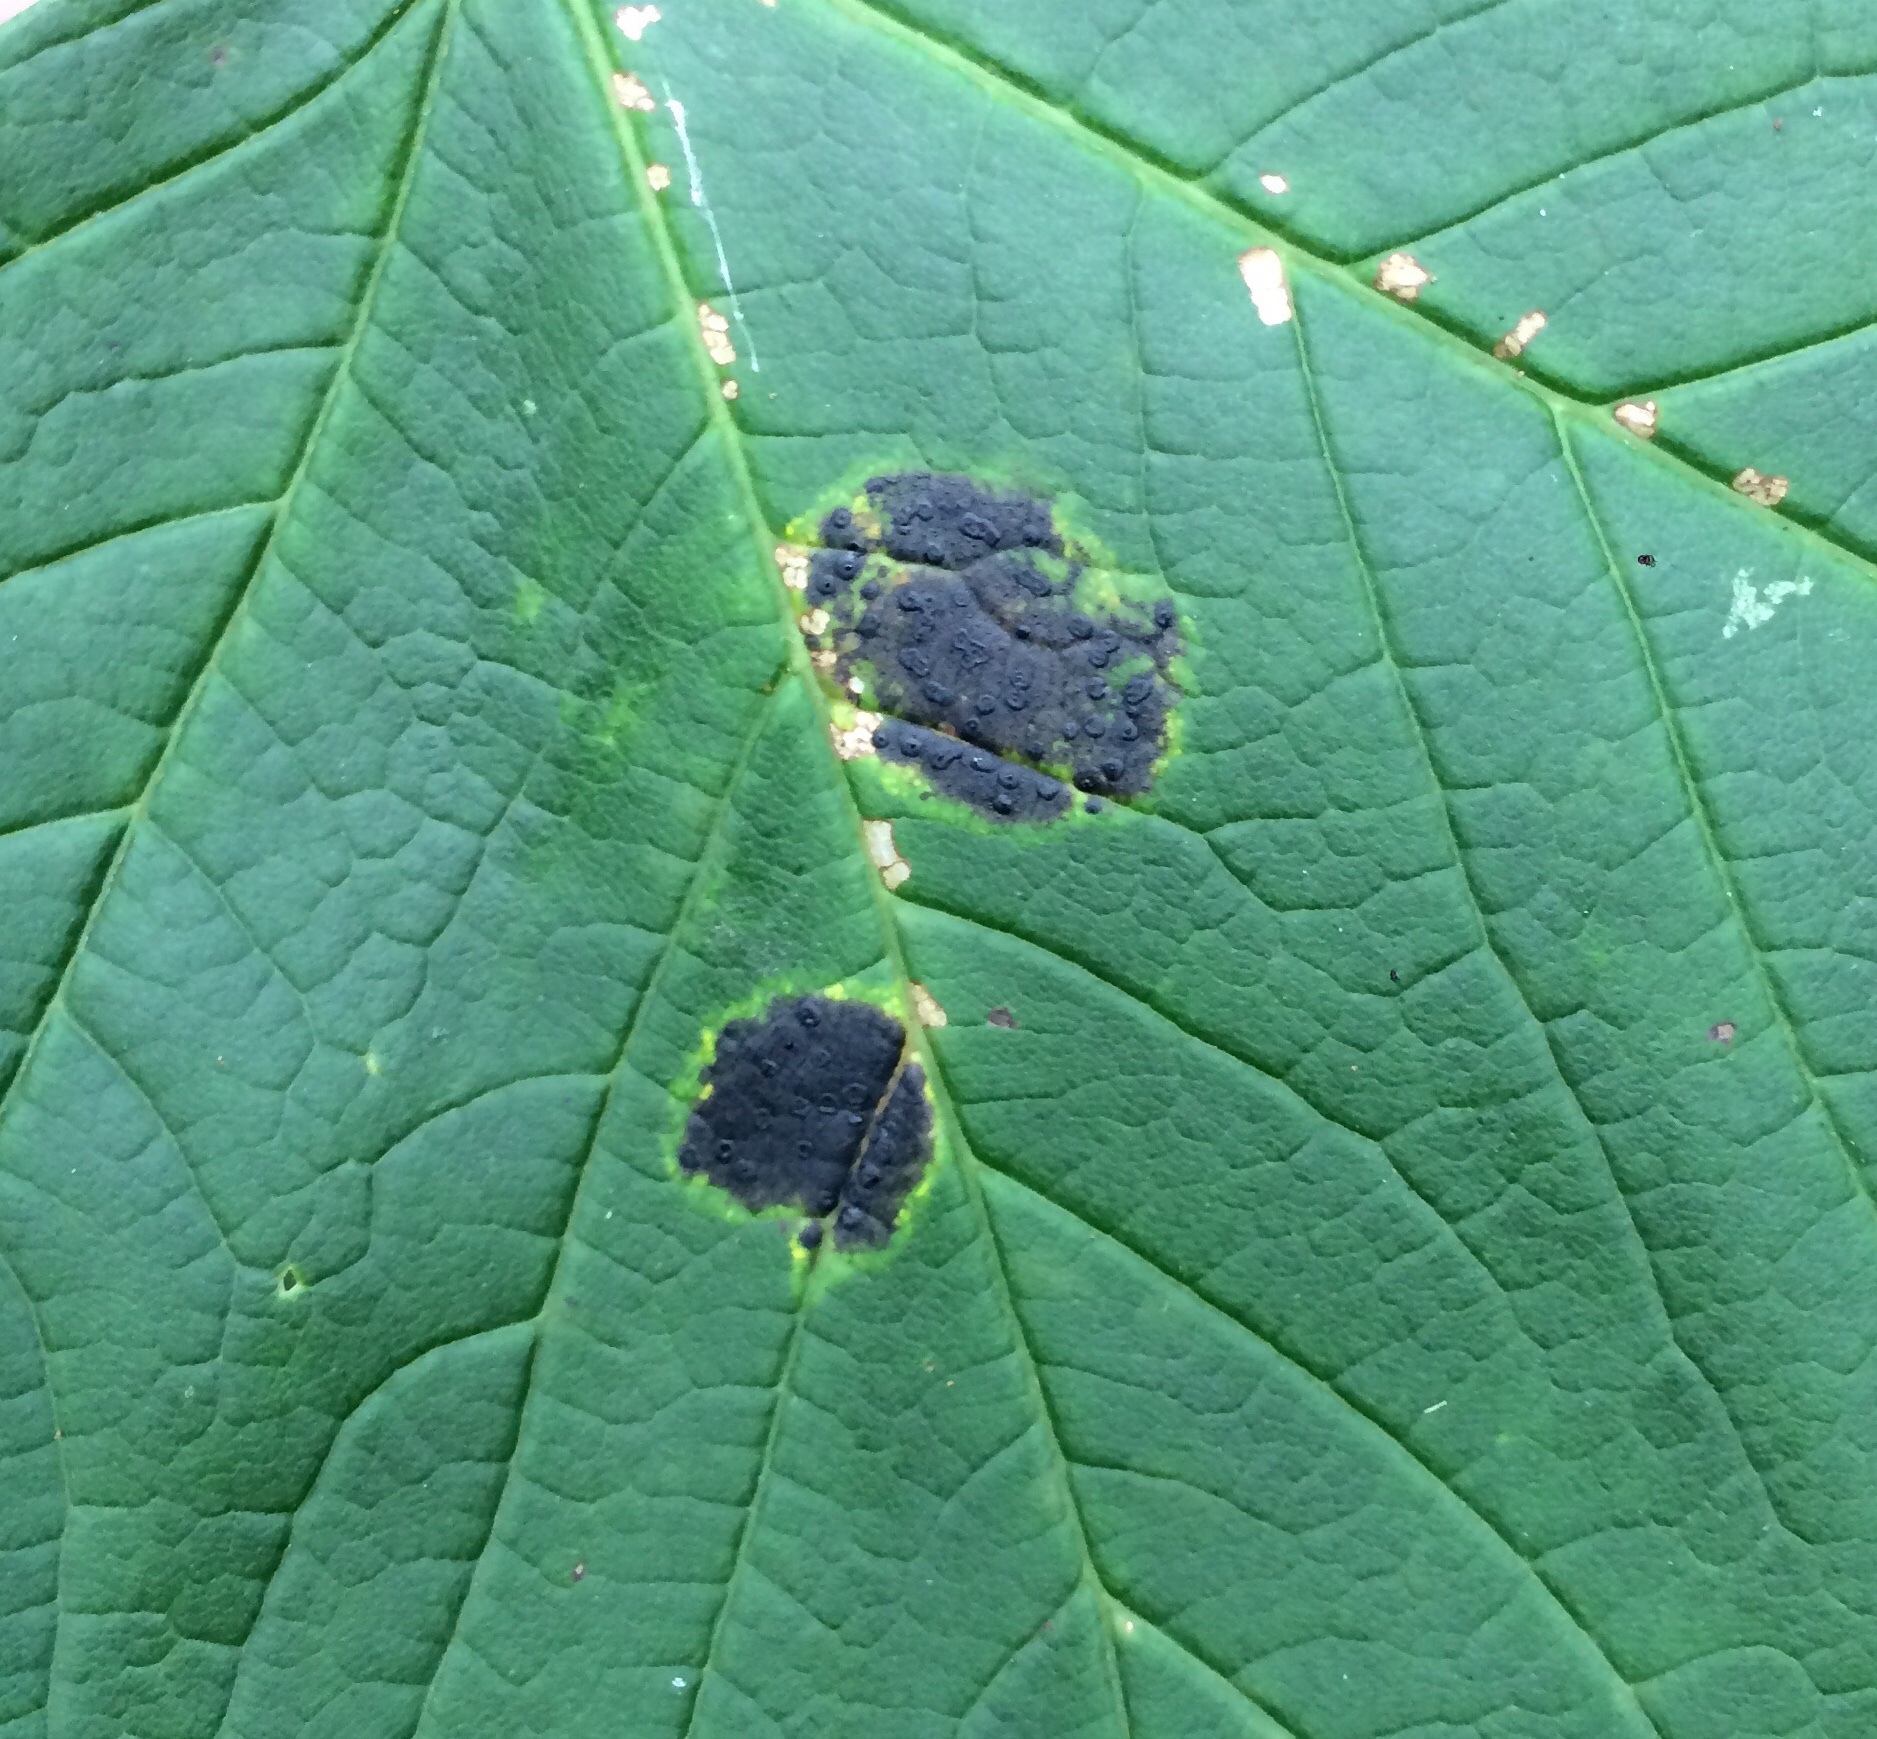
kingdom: Fungi
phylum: Ascomycota
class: Leotiomycetes
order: Rhytismatales
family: Rhytismataceae
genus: Rhytisma
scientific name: Rhytisma acerinum
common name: European tar spot
